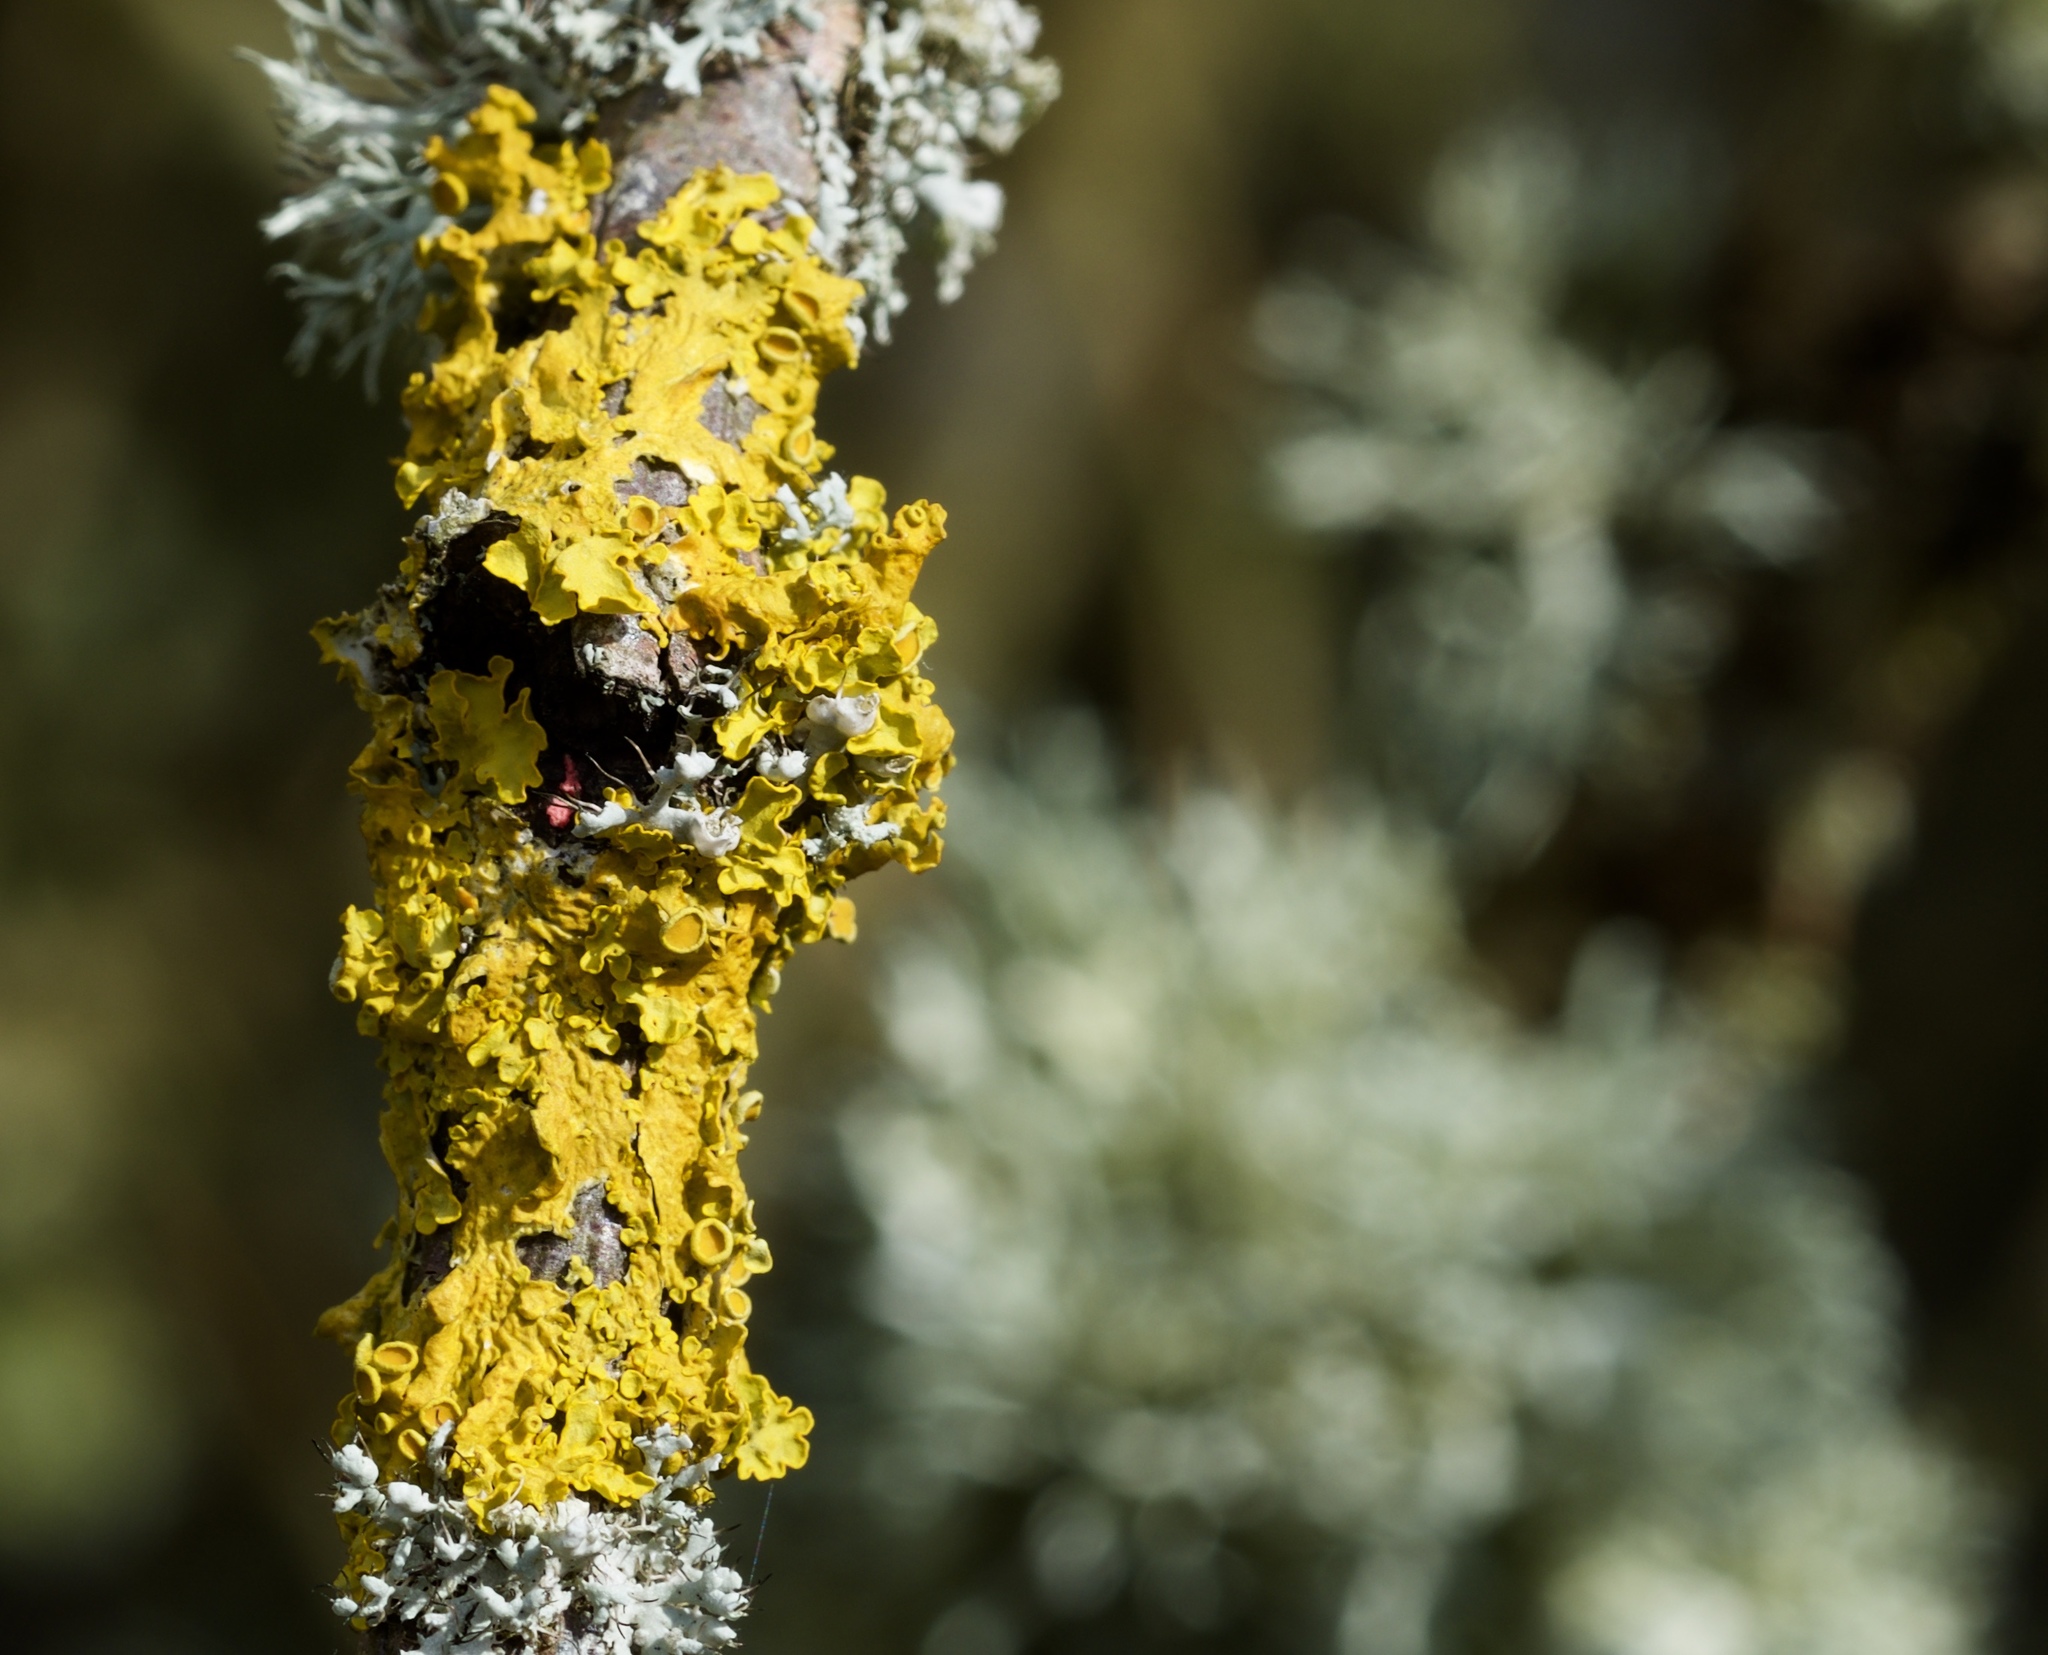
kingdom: Fungi
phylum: Ascomycota
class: Lecanoromycetes
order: Teloschistales
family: Teloschistaceae
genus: Xanthoria
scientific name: Xanthoria parietina
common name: Common orange lichen
